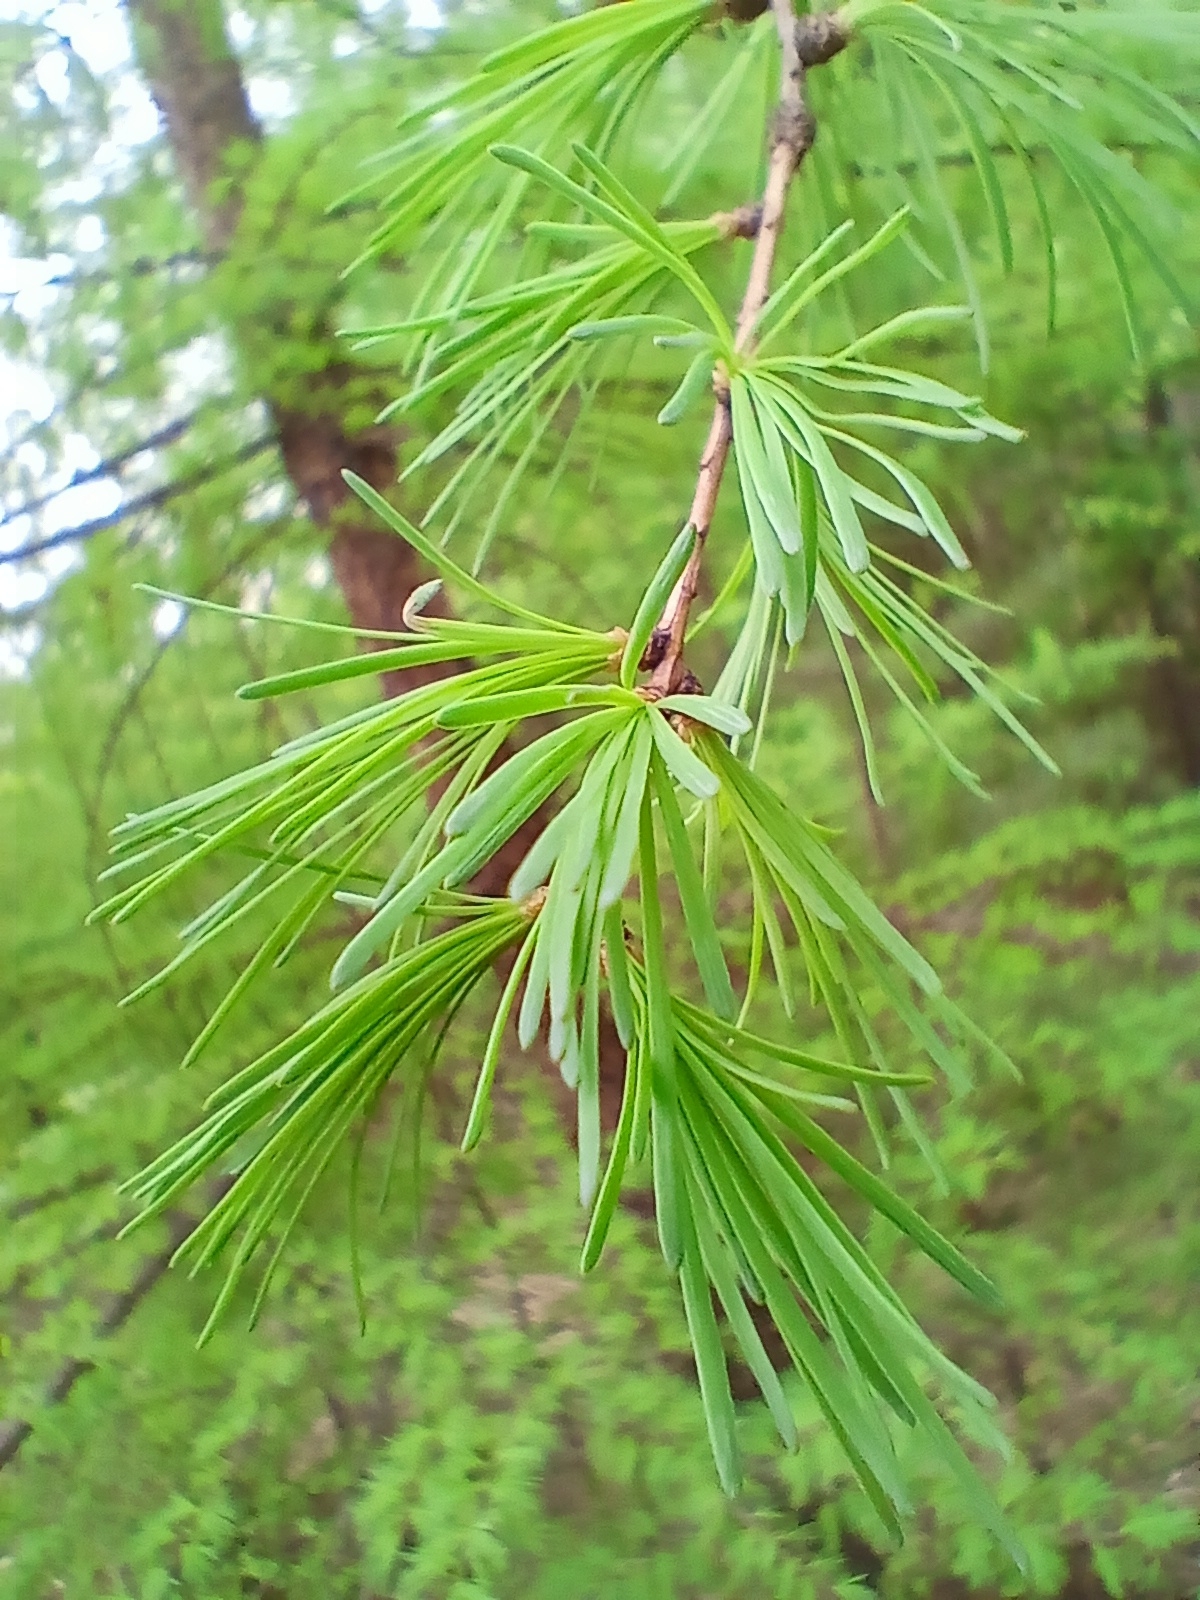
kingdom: Plantae
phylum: Tracheophyta
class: Pinopsida
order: Pinales
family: Pinaceae
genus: Larix
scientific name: Larix sibirica
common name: Siberian larch
